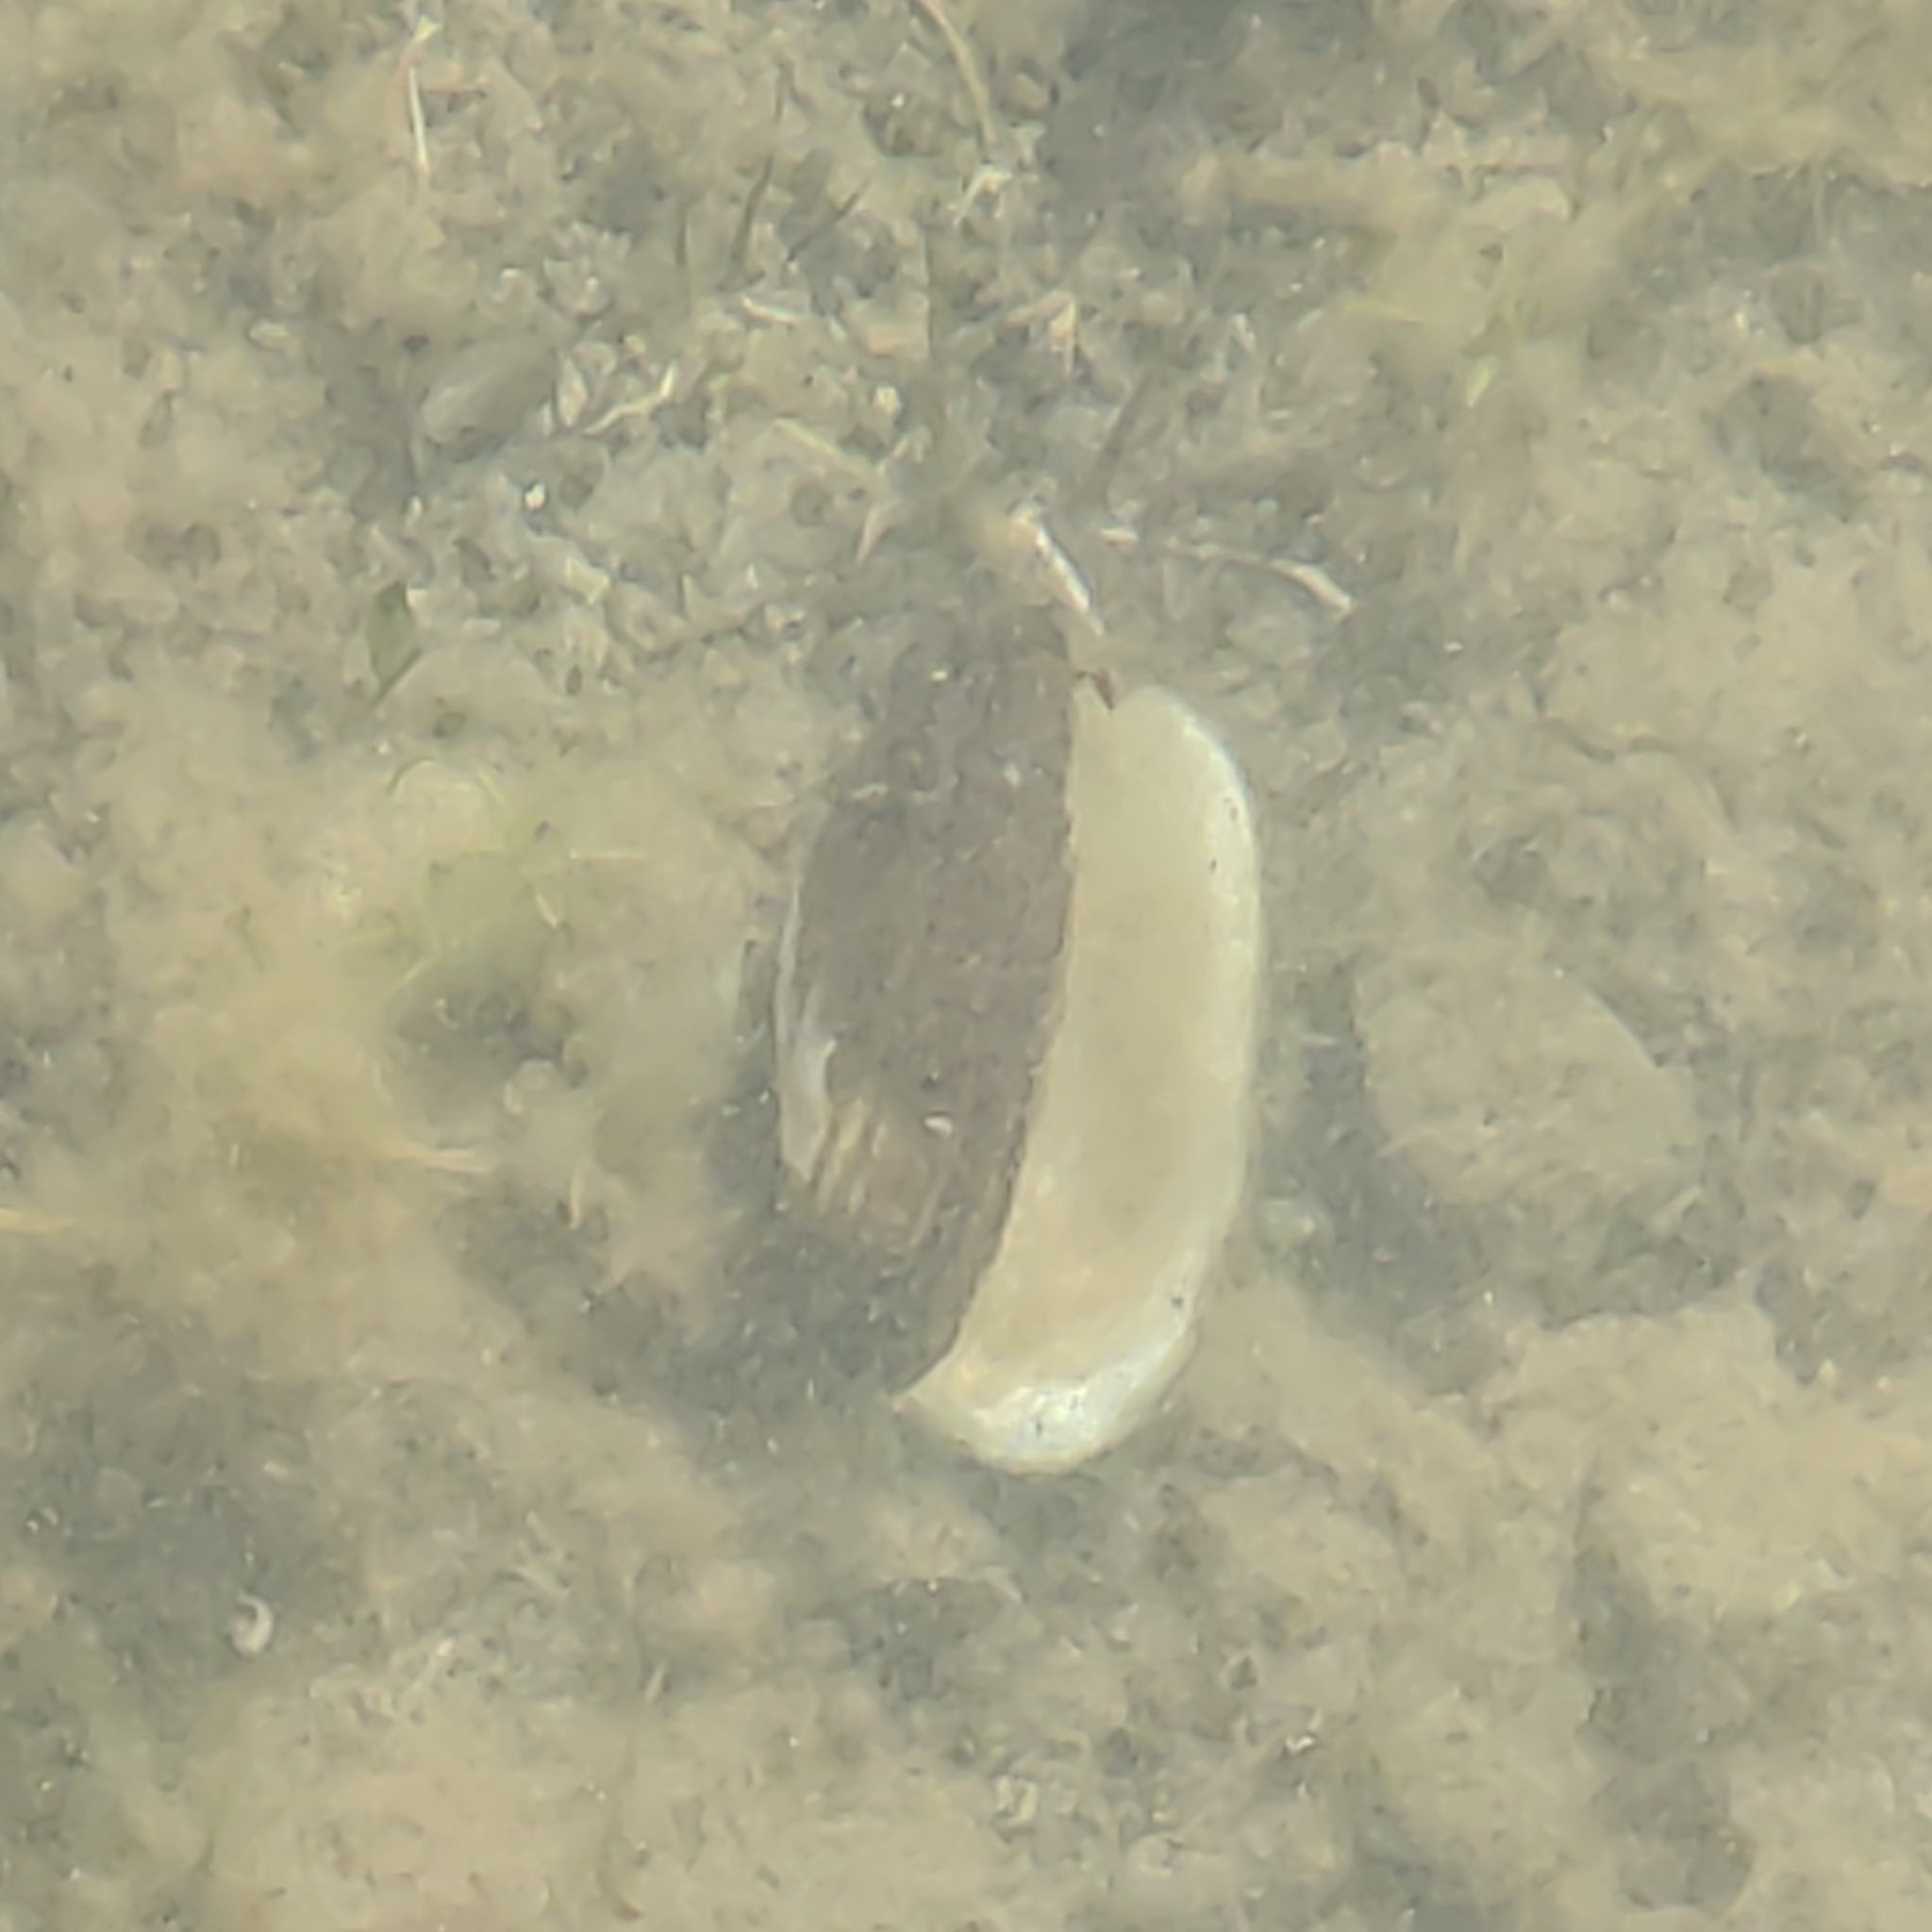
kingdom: Animalia
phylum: Mollusca
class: Bivalvia
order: Unionida
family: Hyriidae
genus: Echyridella
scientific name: Echyridella menziesii
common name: New zealand freshwater mussel
